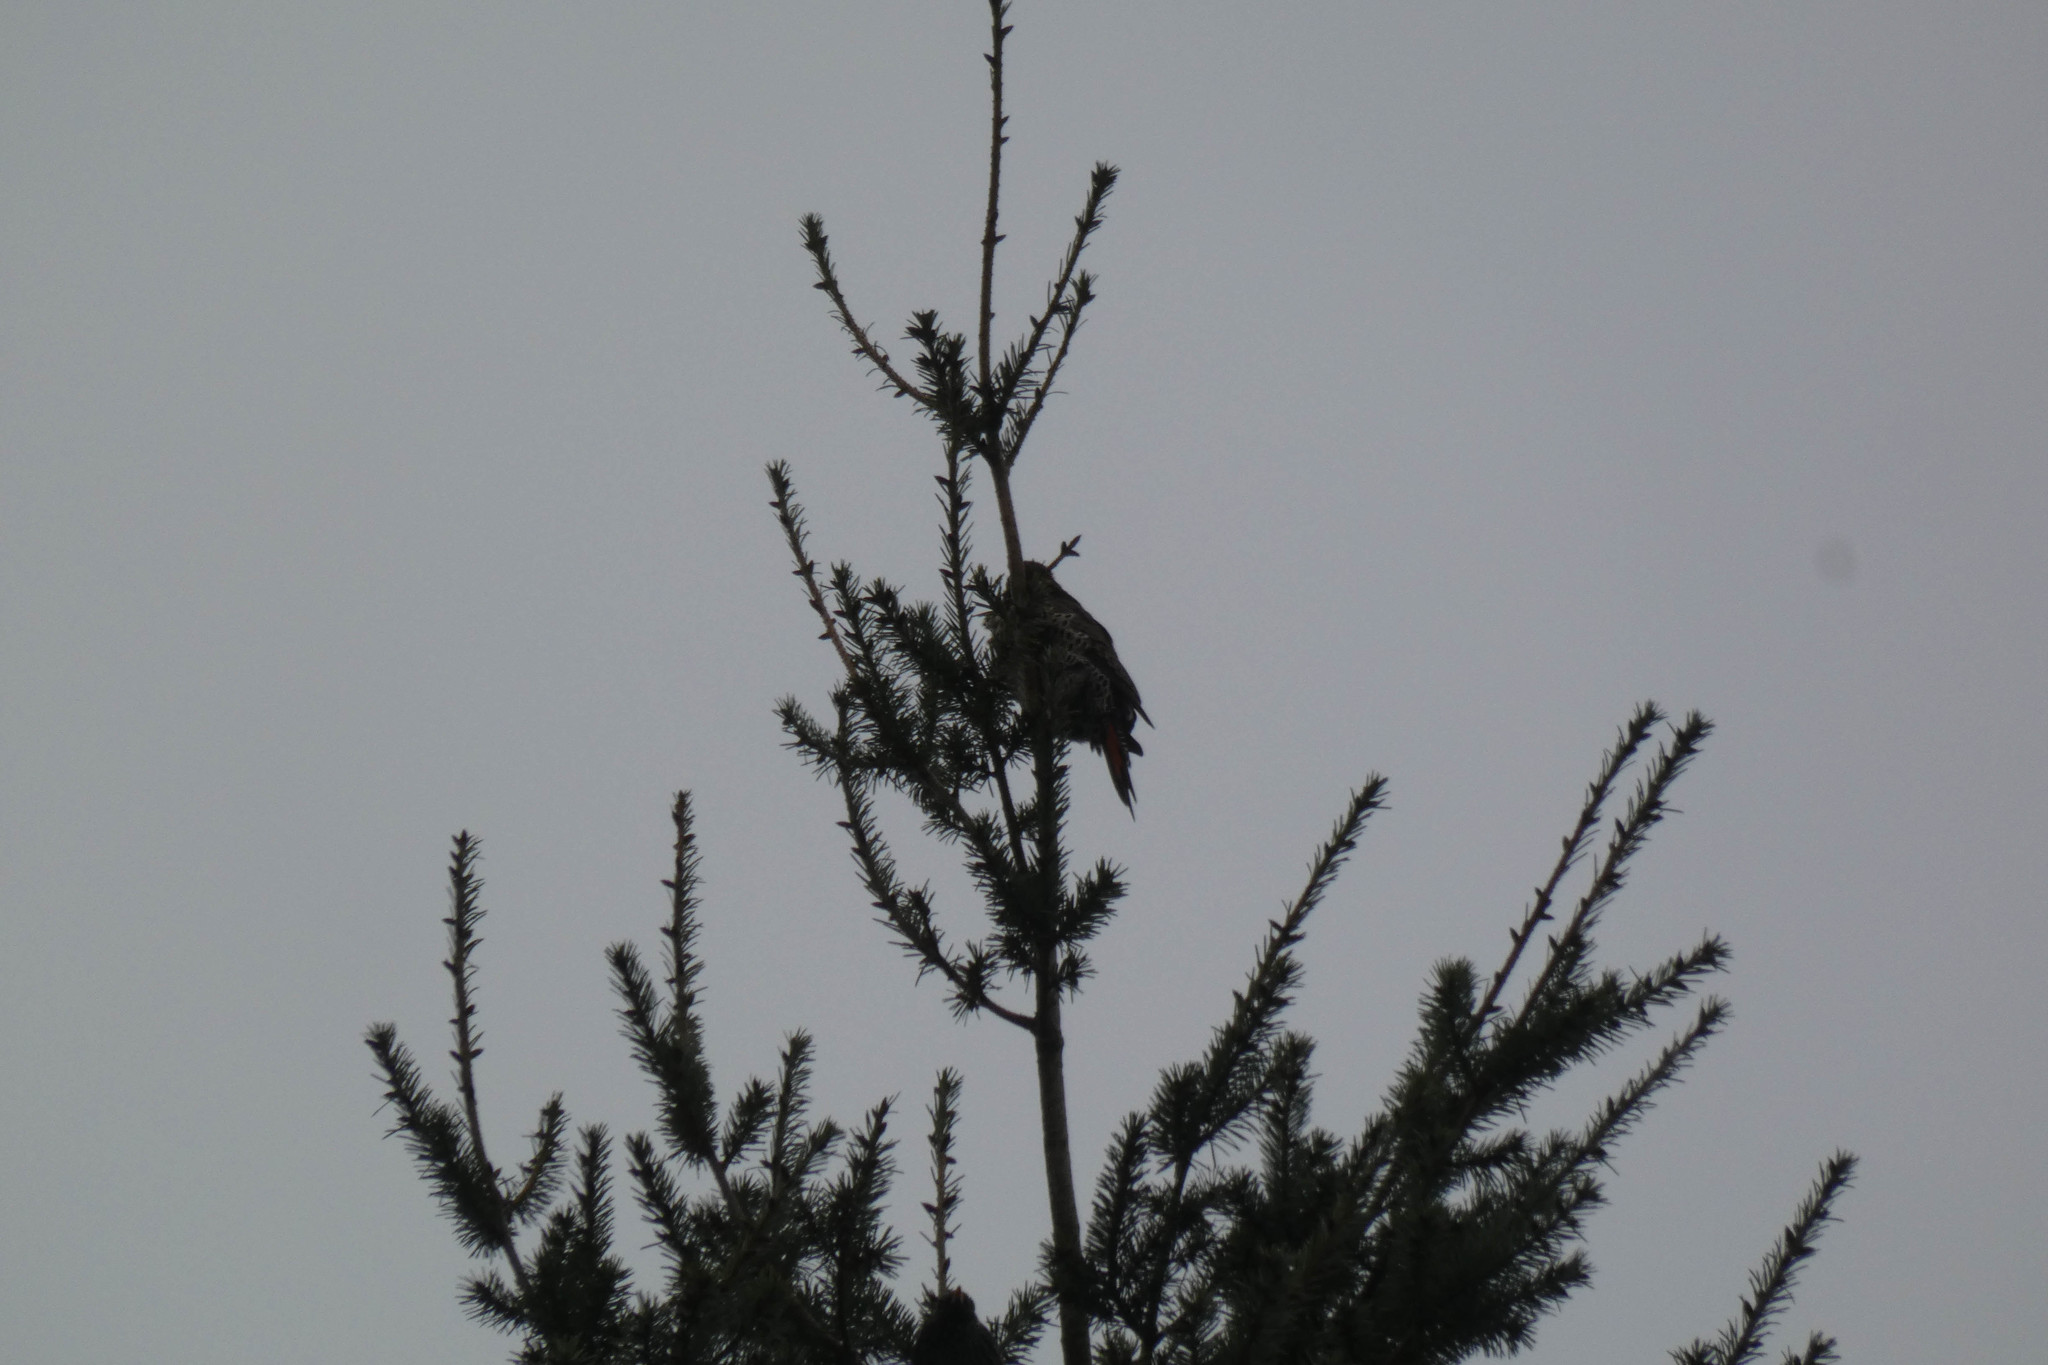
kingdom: Animalia
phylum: Chordata
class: Aves
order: Piciformes
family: Picidae
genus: Colaptes
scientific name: Colaptes auratus
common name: Northern flicker
